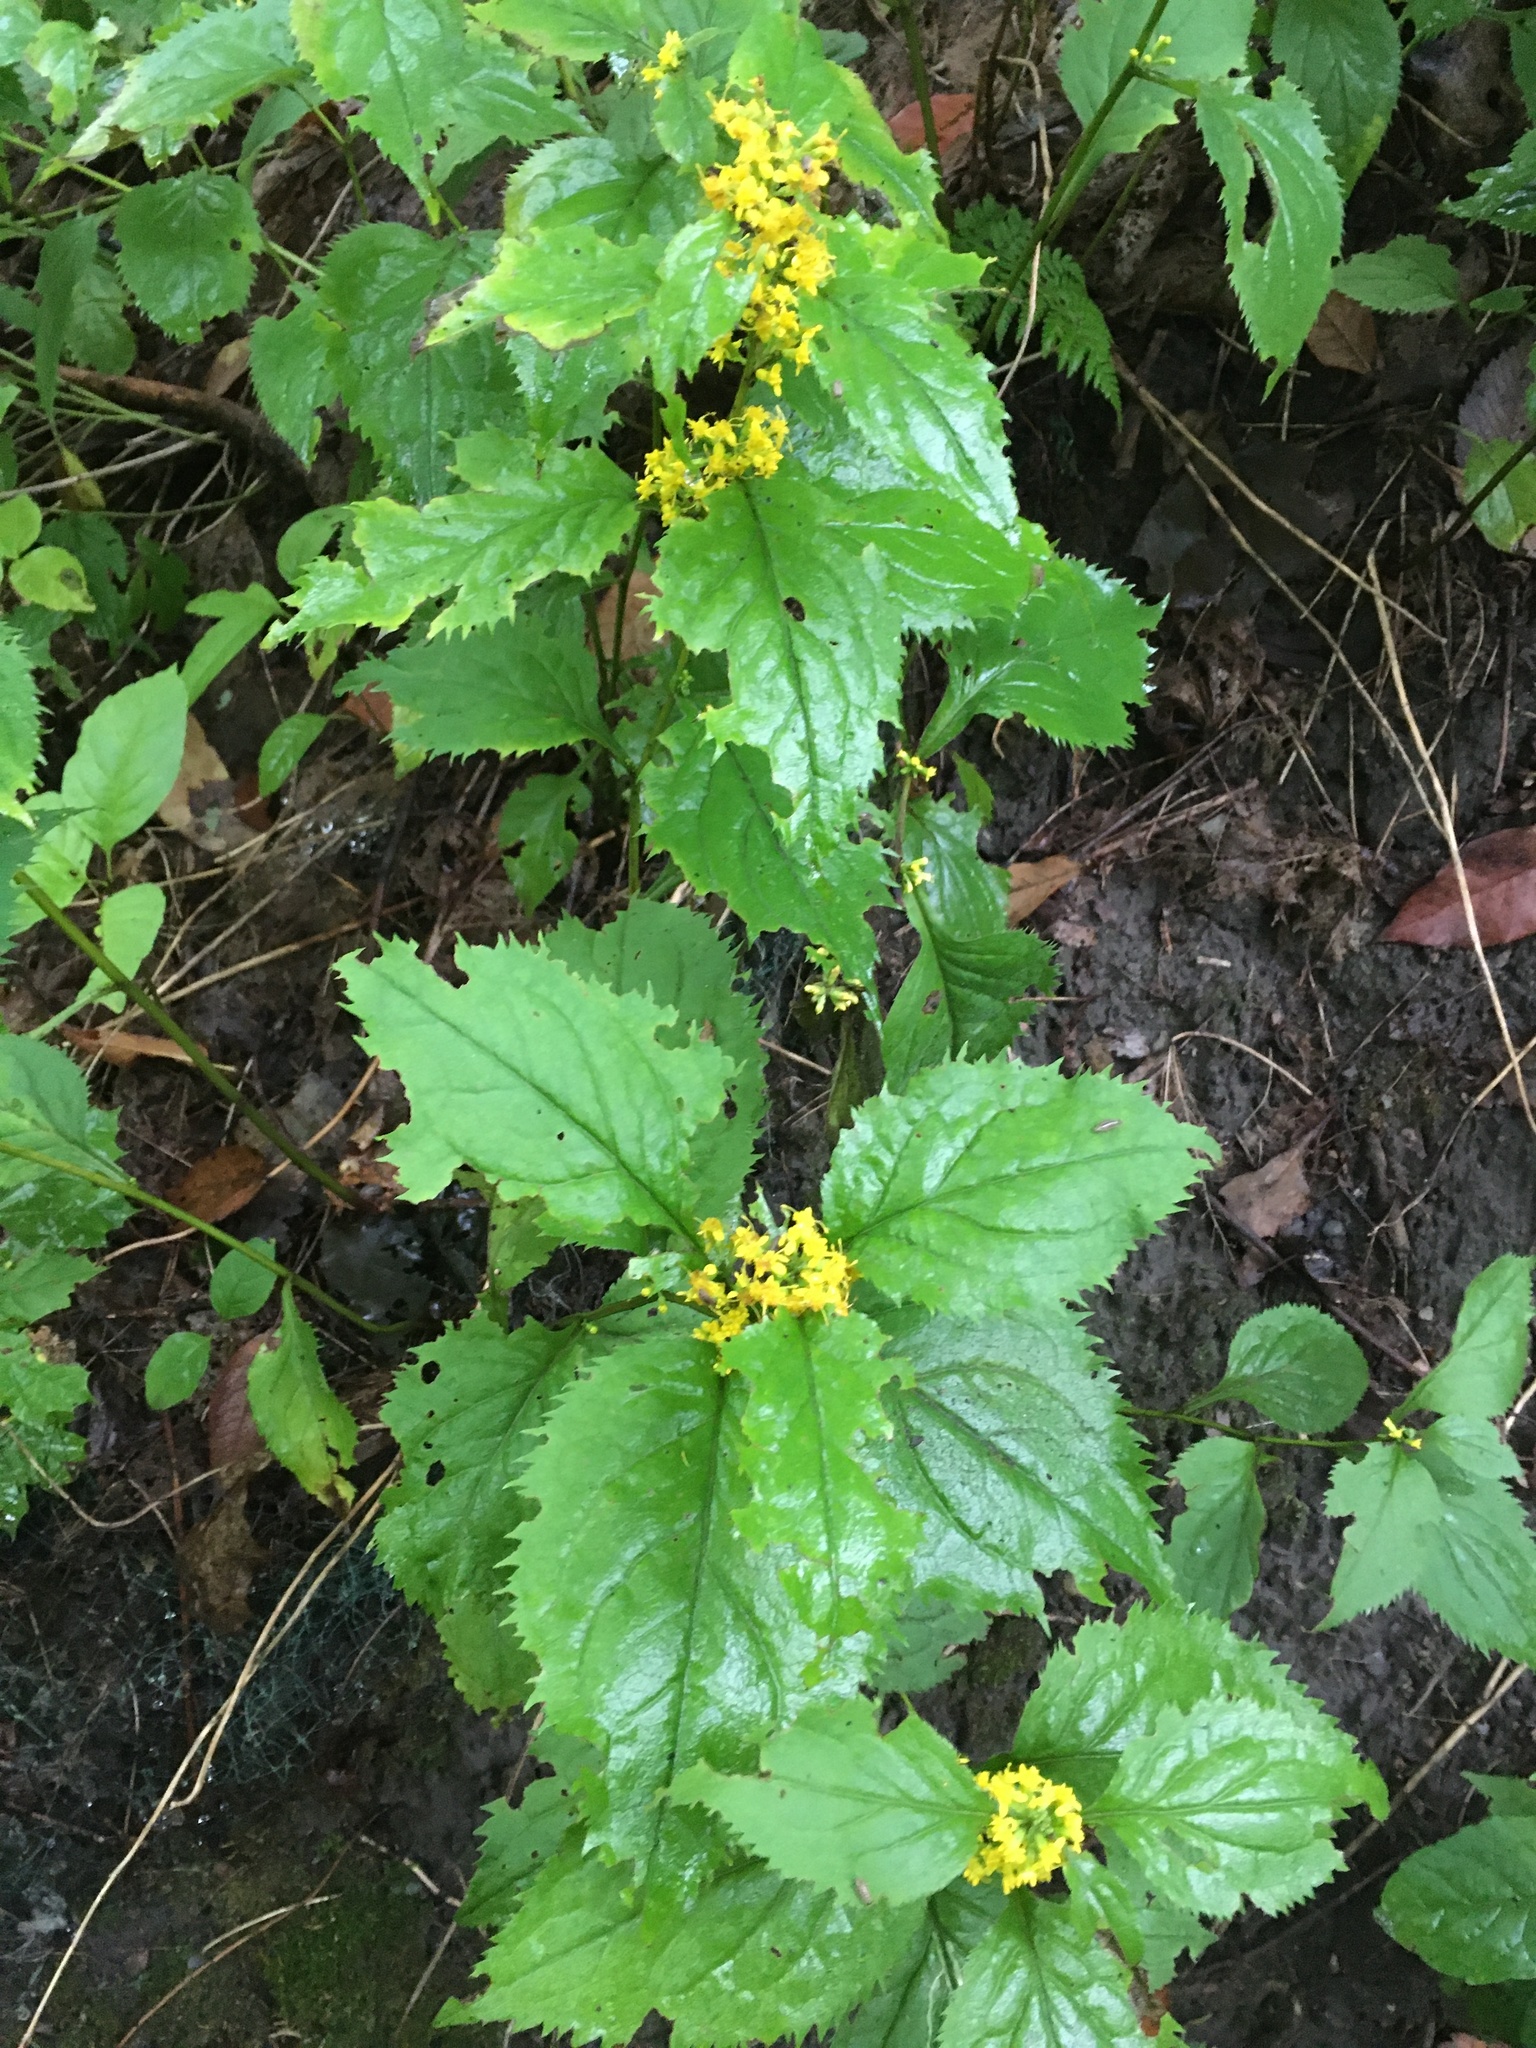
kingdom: Plantae
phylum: Tracheophyta
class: Magnoliopsida
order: Asterales
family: Asteraceae
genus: Solidago
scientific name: Solidago flexicaulis
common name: Zig-zag goldenrod
